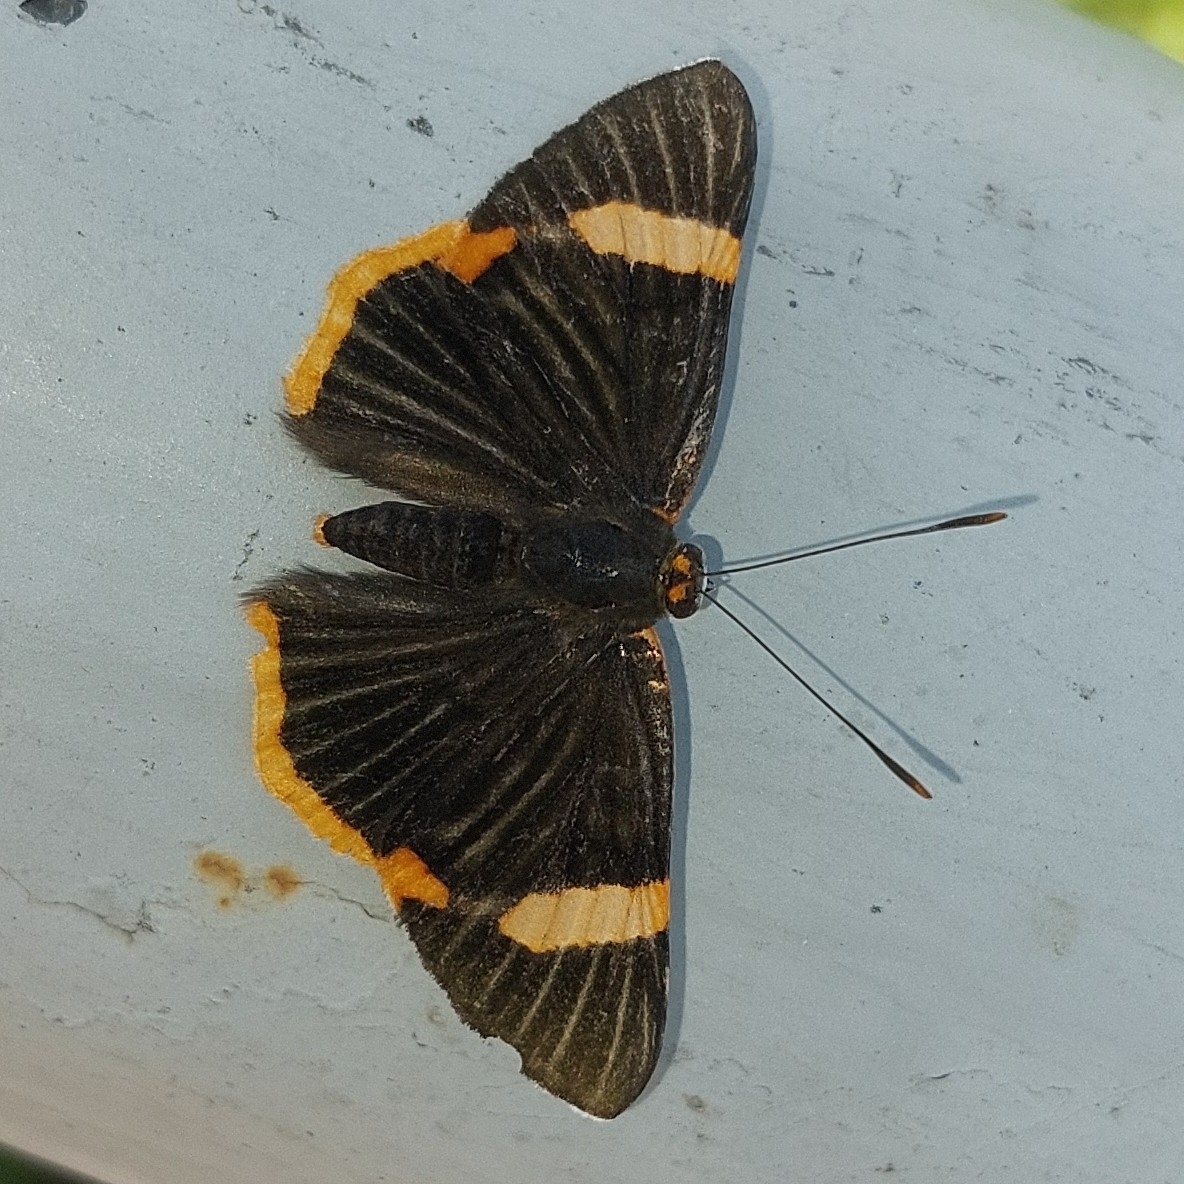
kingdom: Animalia
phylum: Arthropoda
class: Insecta
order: Lepidoptera
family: Riodinidae
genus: Riodina
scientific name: Riodina lycisca
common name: Lycisca metalmark
